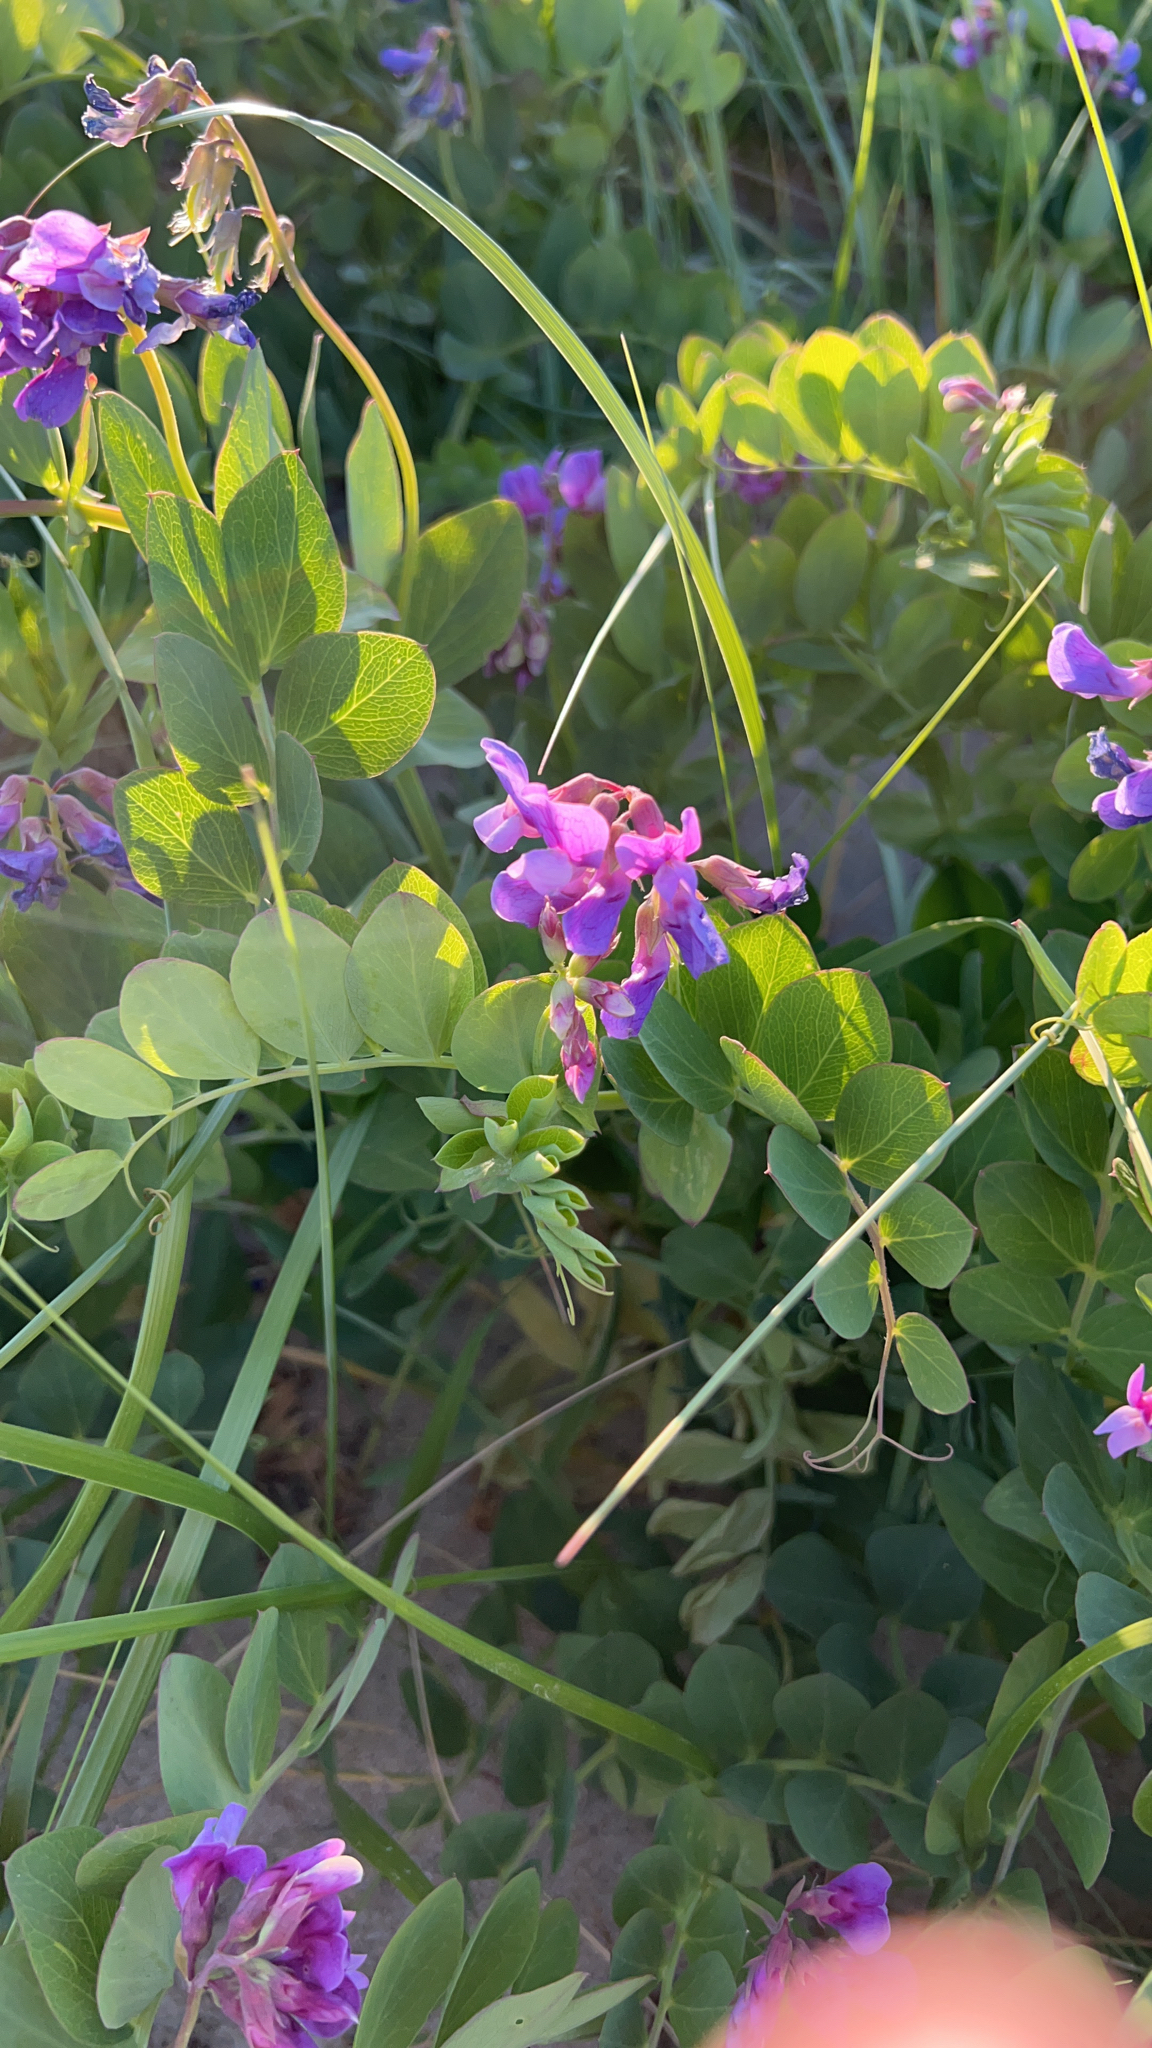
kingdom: Plantae
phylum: Tracheophyta
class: Magnoliopsida
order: Fabales
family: Fabaceae
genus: Lathyrus
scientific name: Lathyrus japonicus
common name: Sea pea
